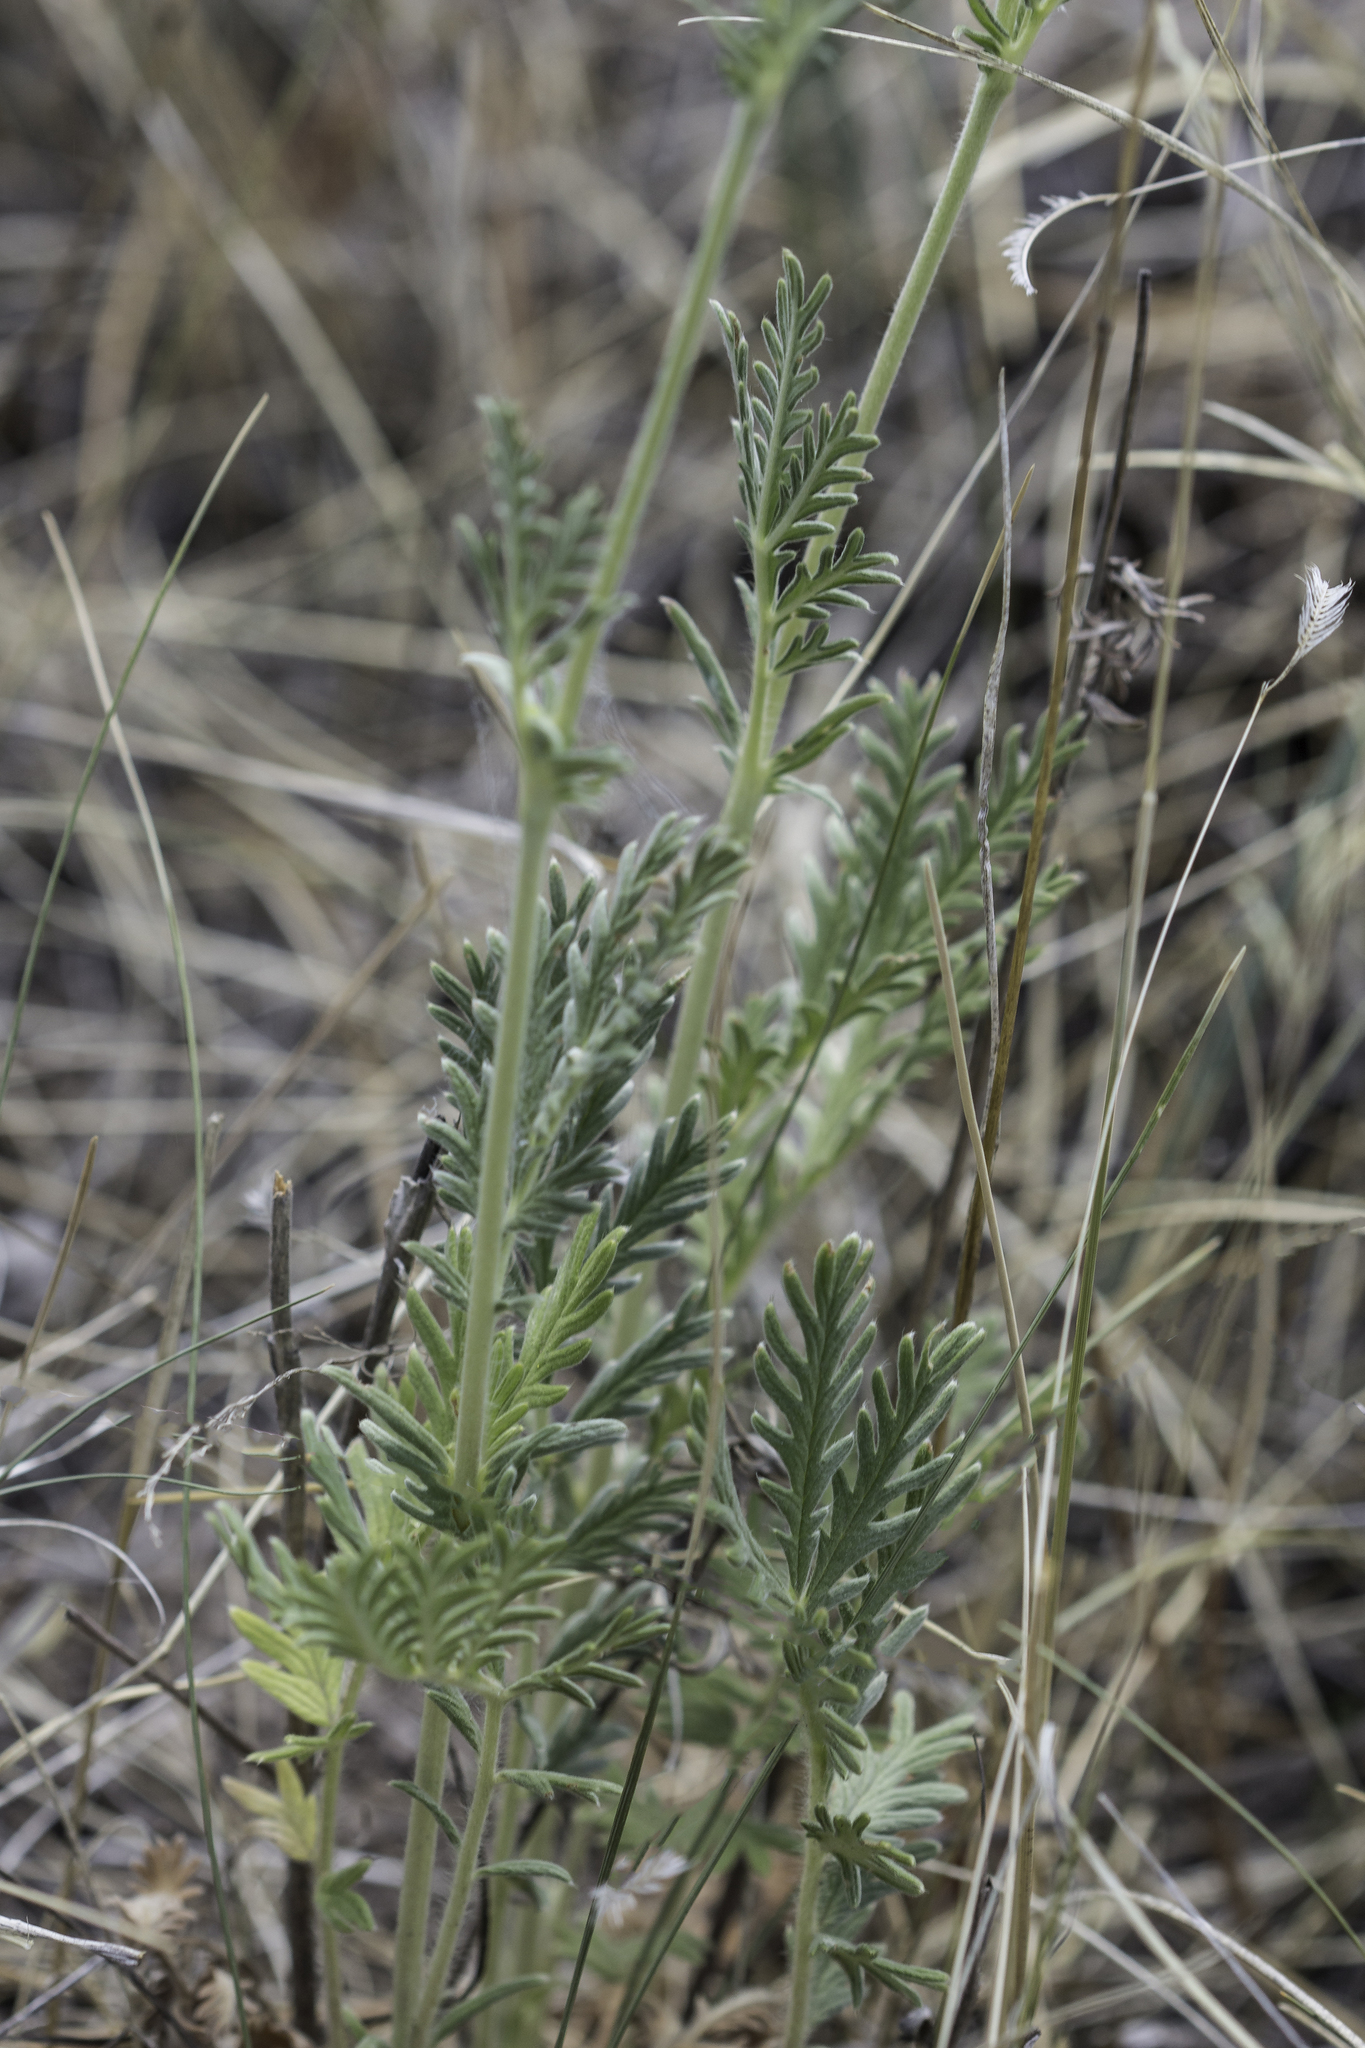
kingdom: Plantae
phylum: Tracheophyta
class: Magnoliopsida
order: Rosales
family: Rosaceae
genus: Potentilla
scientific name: Potentilla pensylvanica
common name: Pennsylvania cinquefoil
